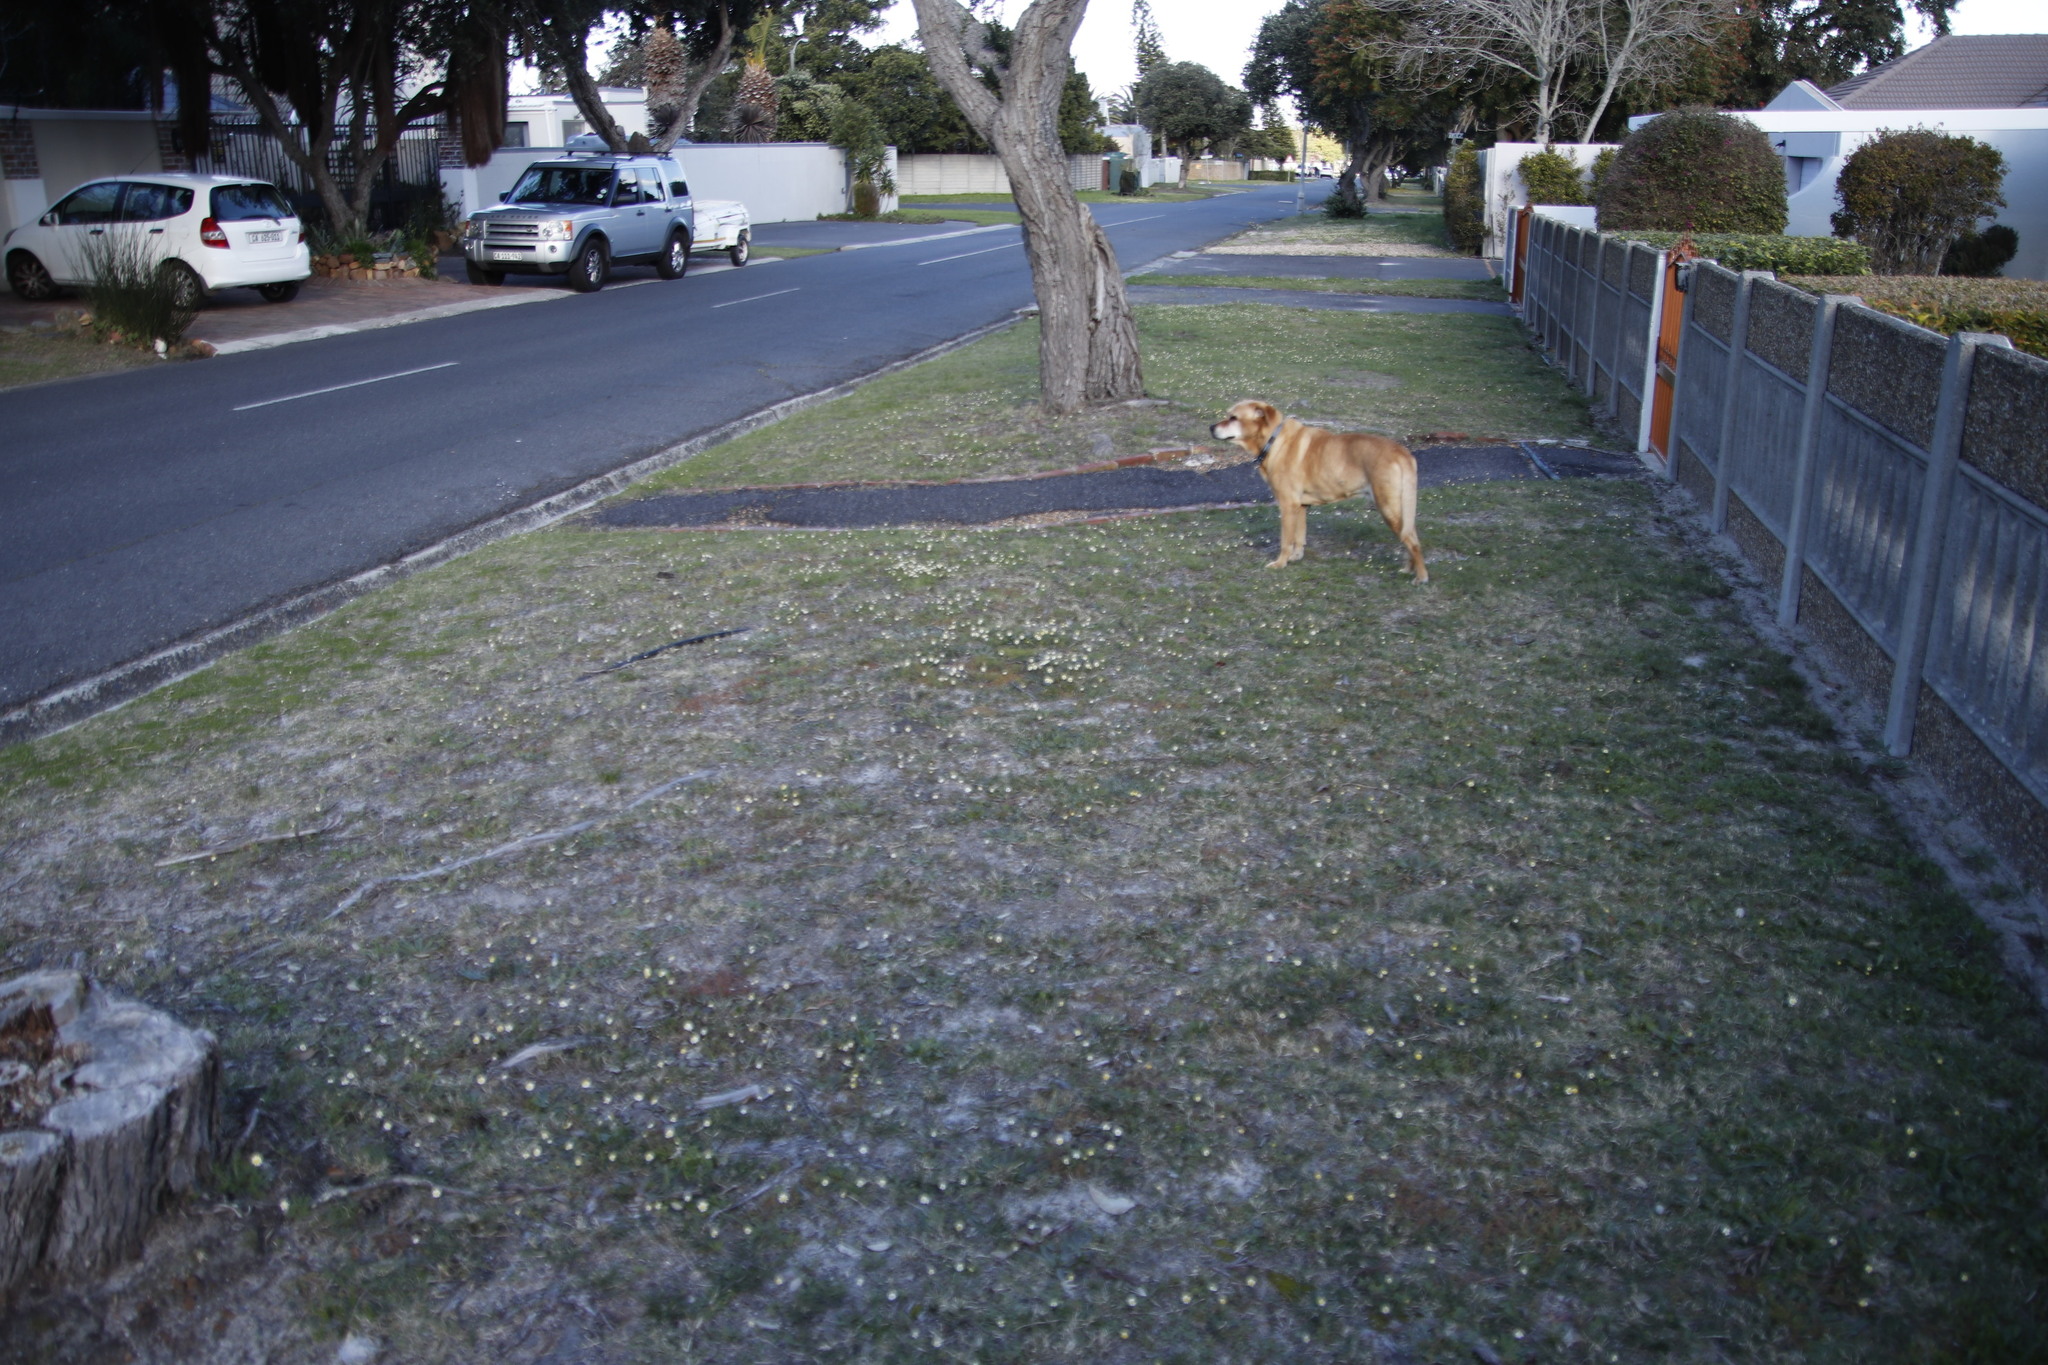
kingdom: Plantae
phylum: Tracheophyta
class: Magnoliopsida
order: Asterales
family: Asteraceae
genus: Cotula
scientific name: Cotula turbinata
